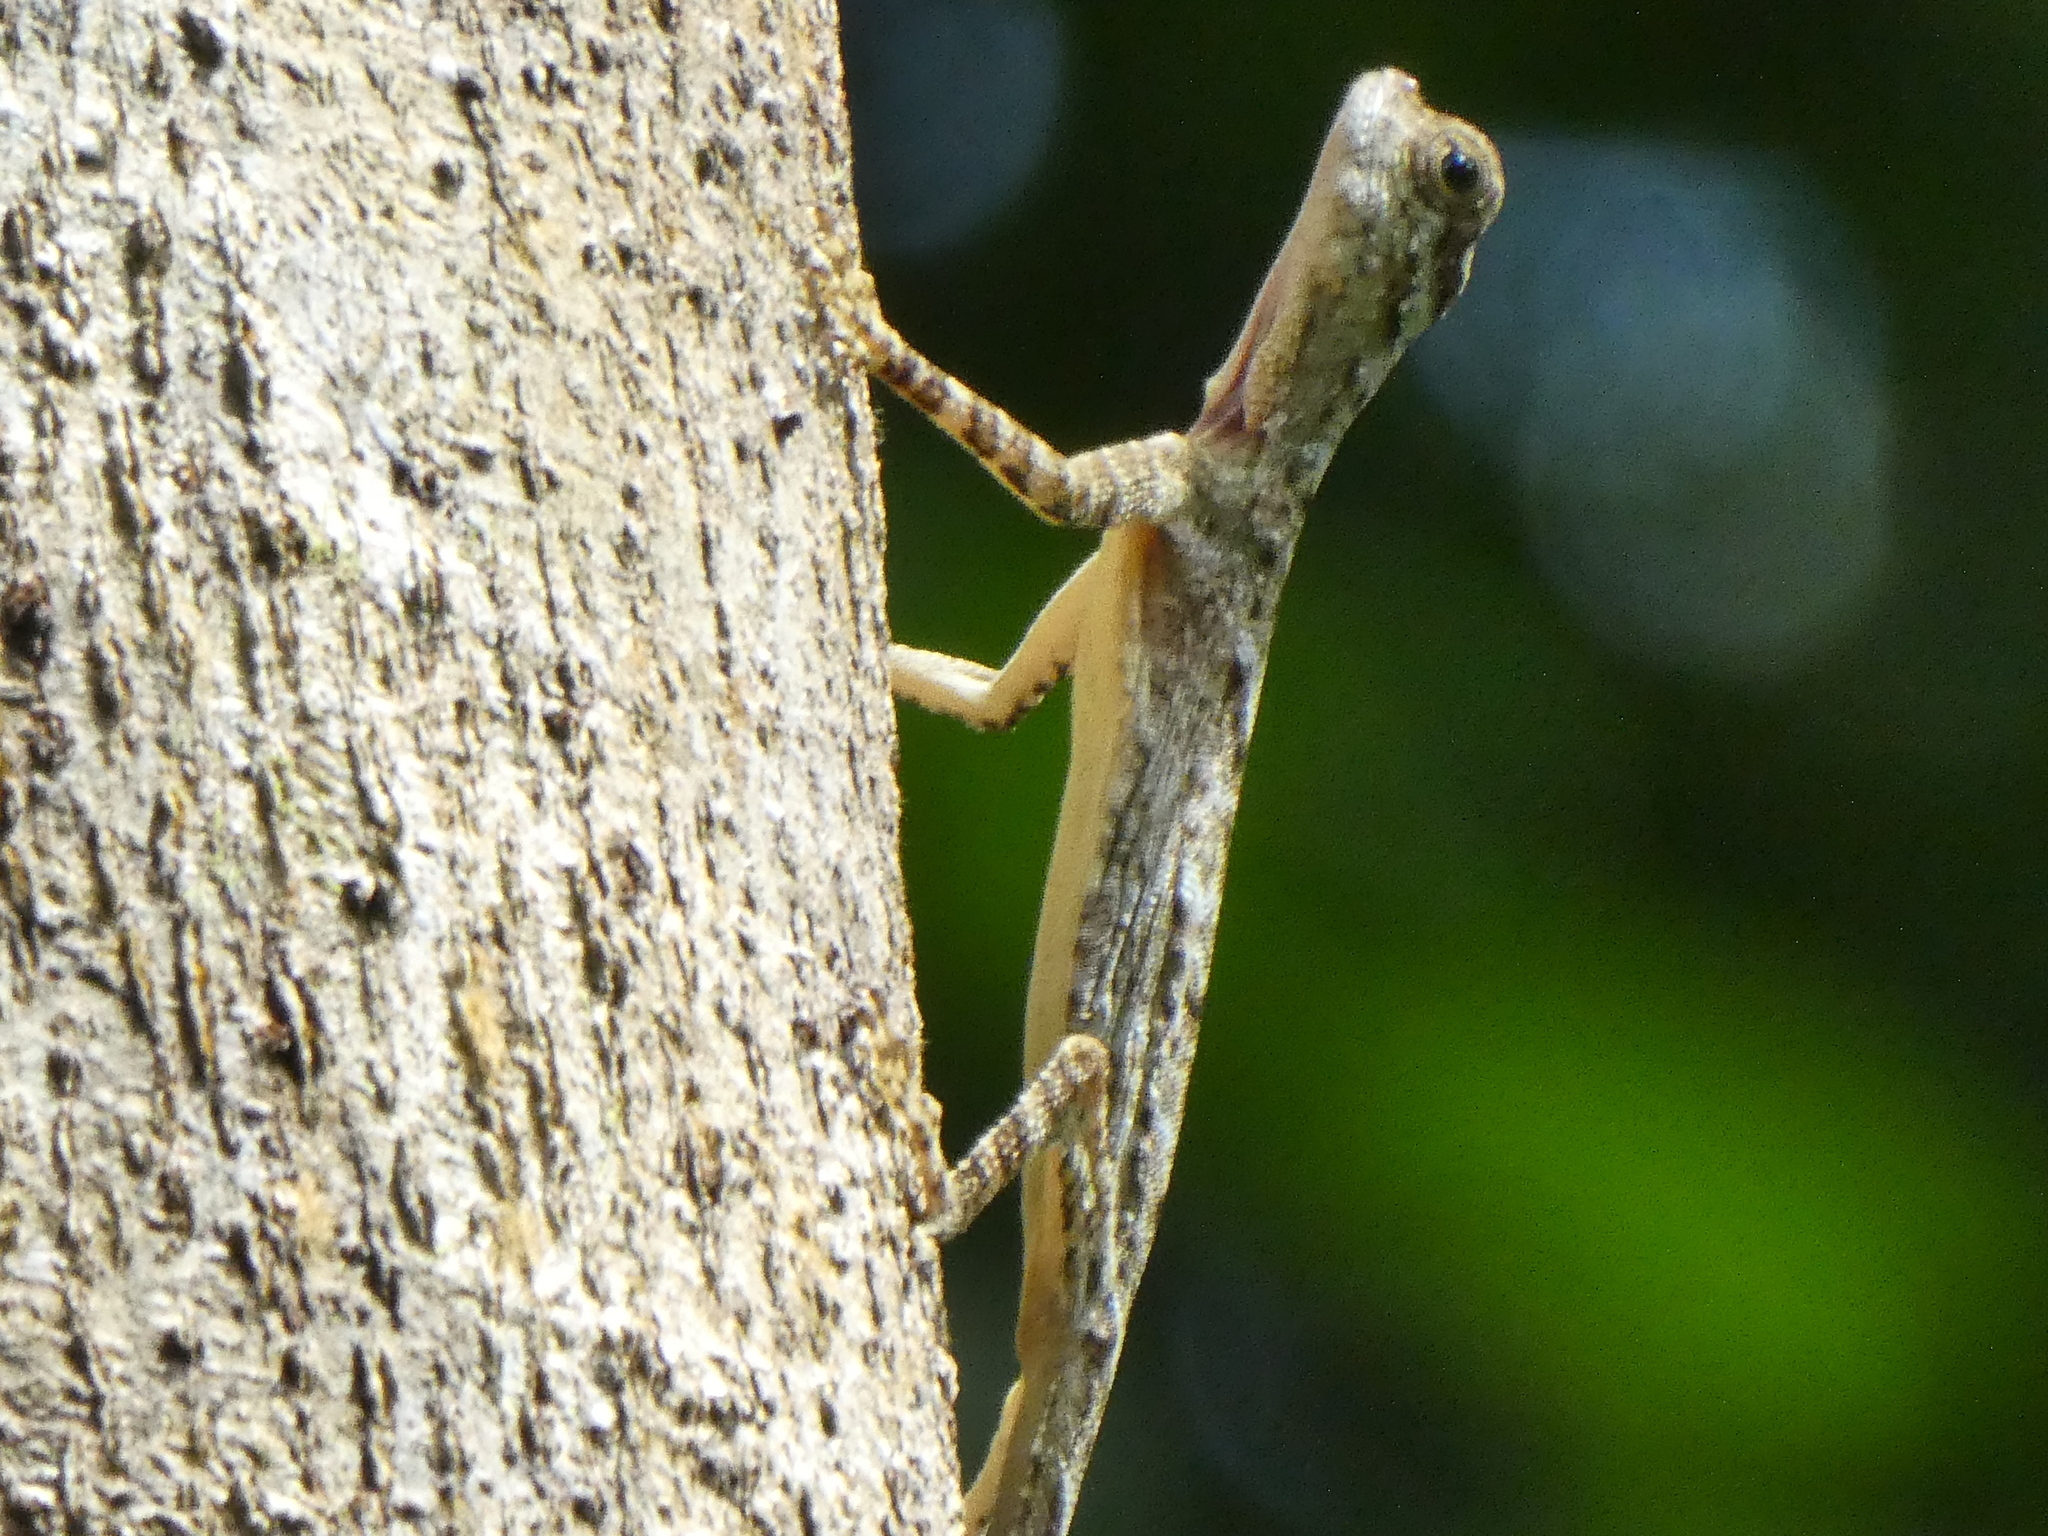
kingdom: Animalia
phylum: Chordata
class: Squamata
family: Agamidae
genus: Draco
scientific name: Draco taeniopterus
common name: Thai flying dragon
